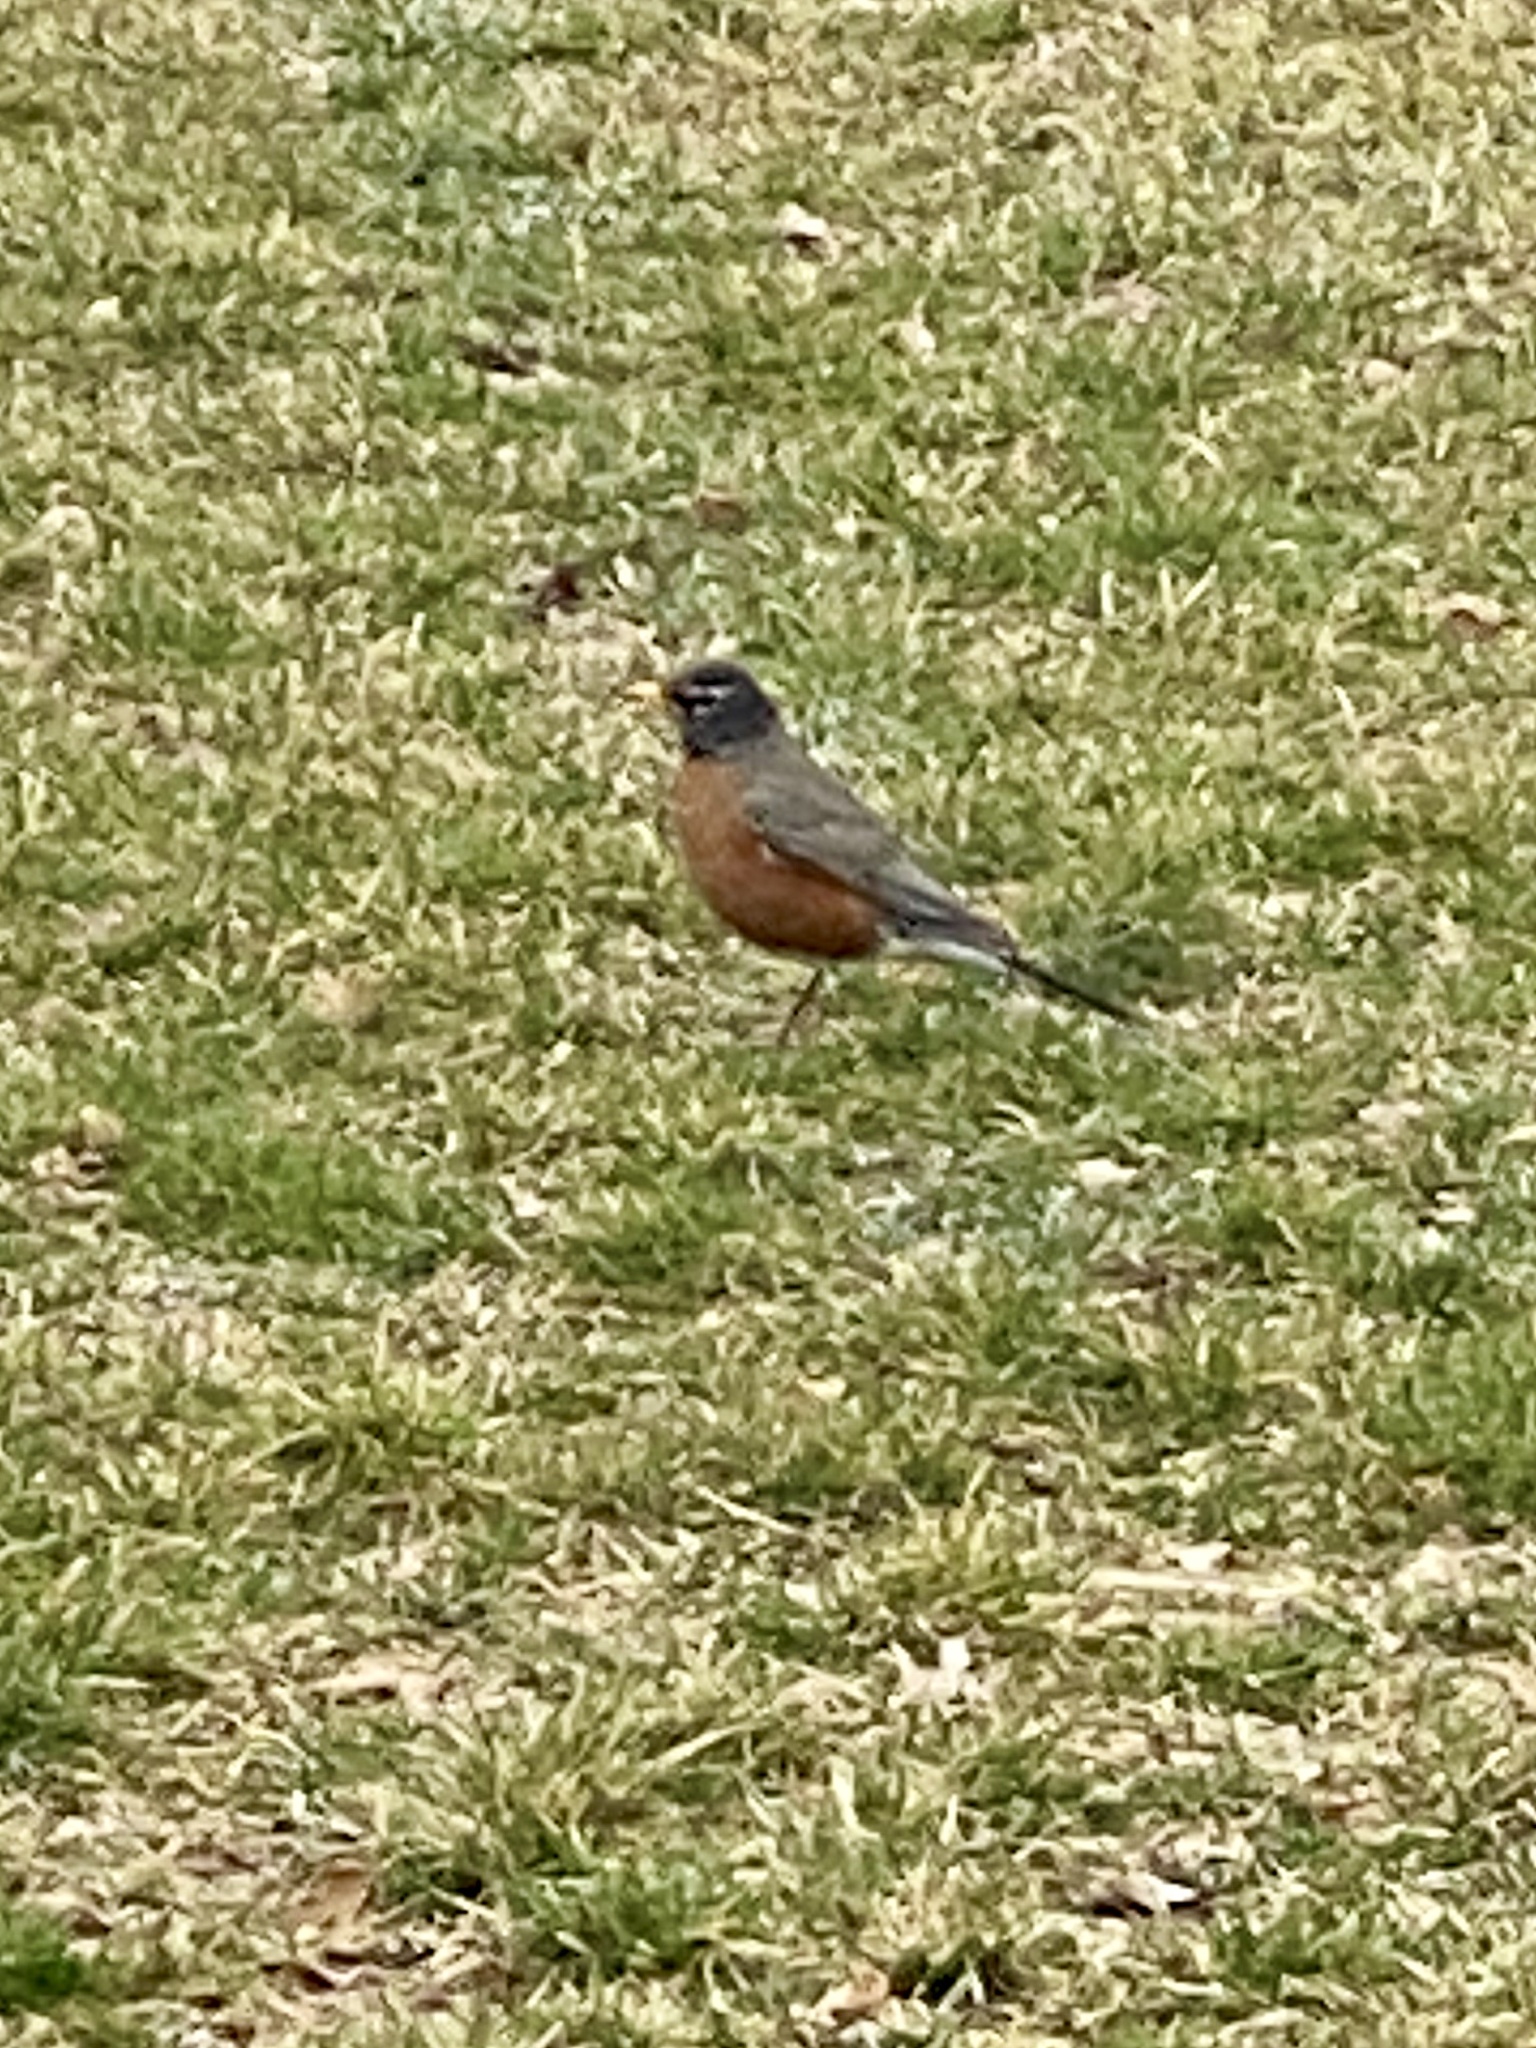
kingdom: Animalia
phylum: Chordata
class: Aves
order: Passeriformes
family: Turdidae
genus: Turdus
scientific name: Turdus migratorius
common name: American robin
